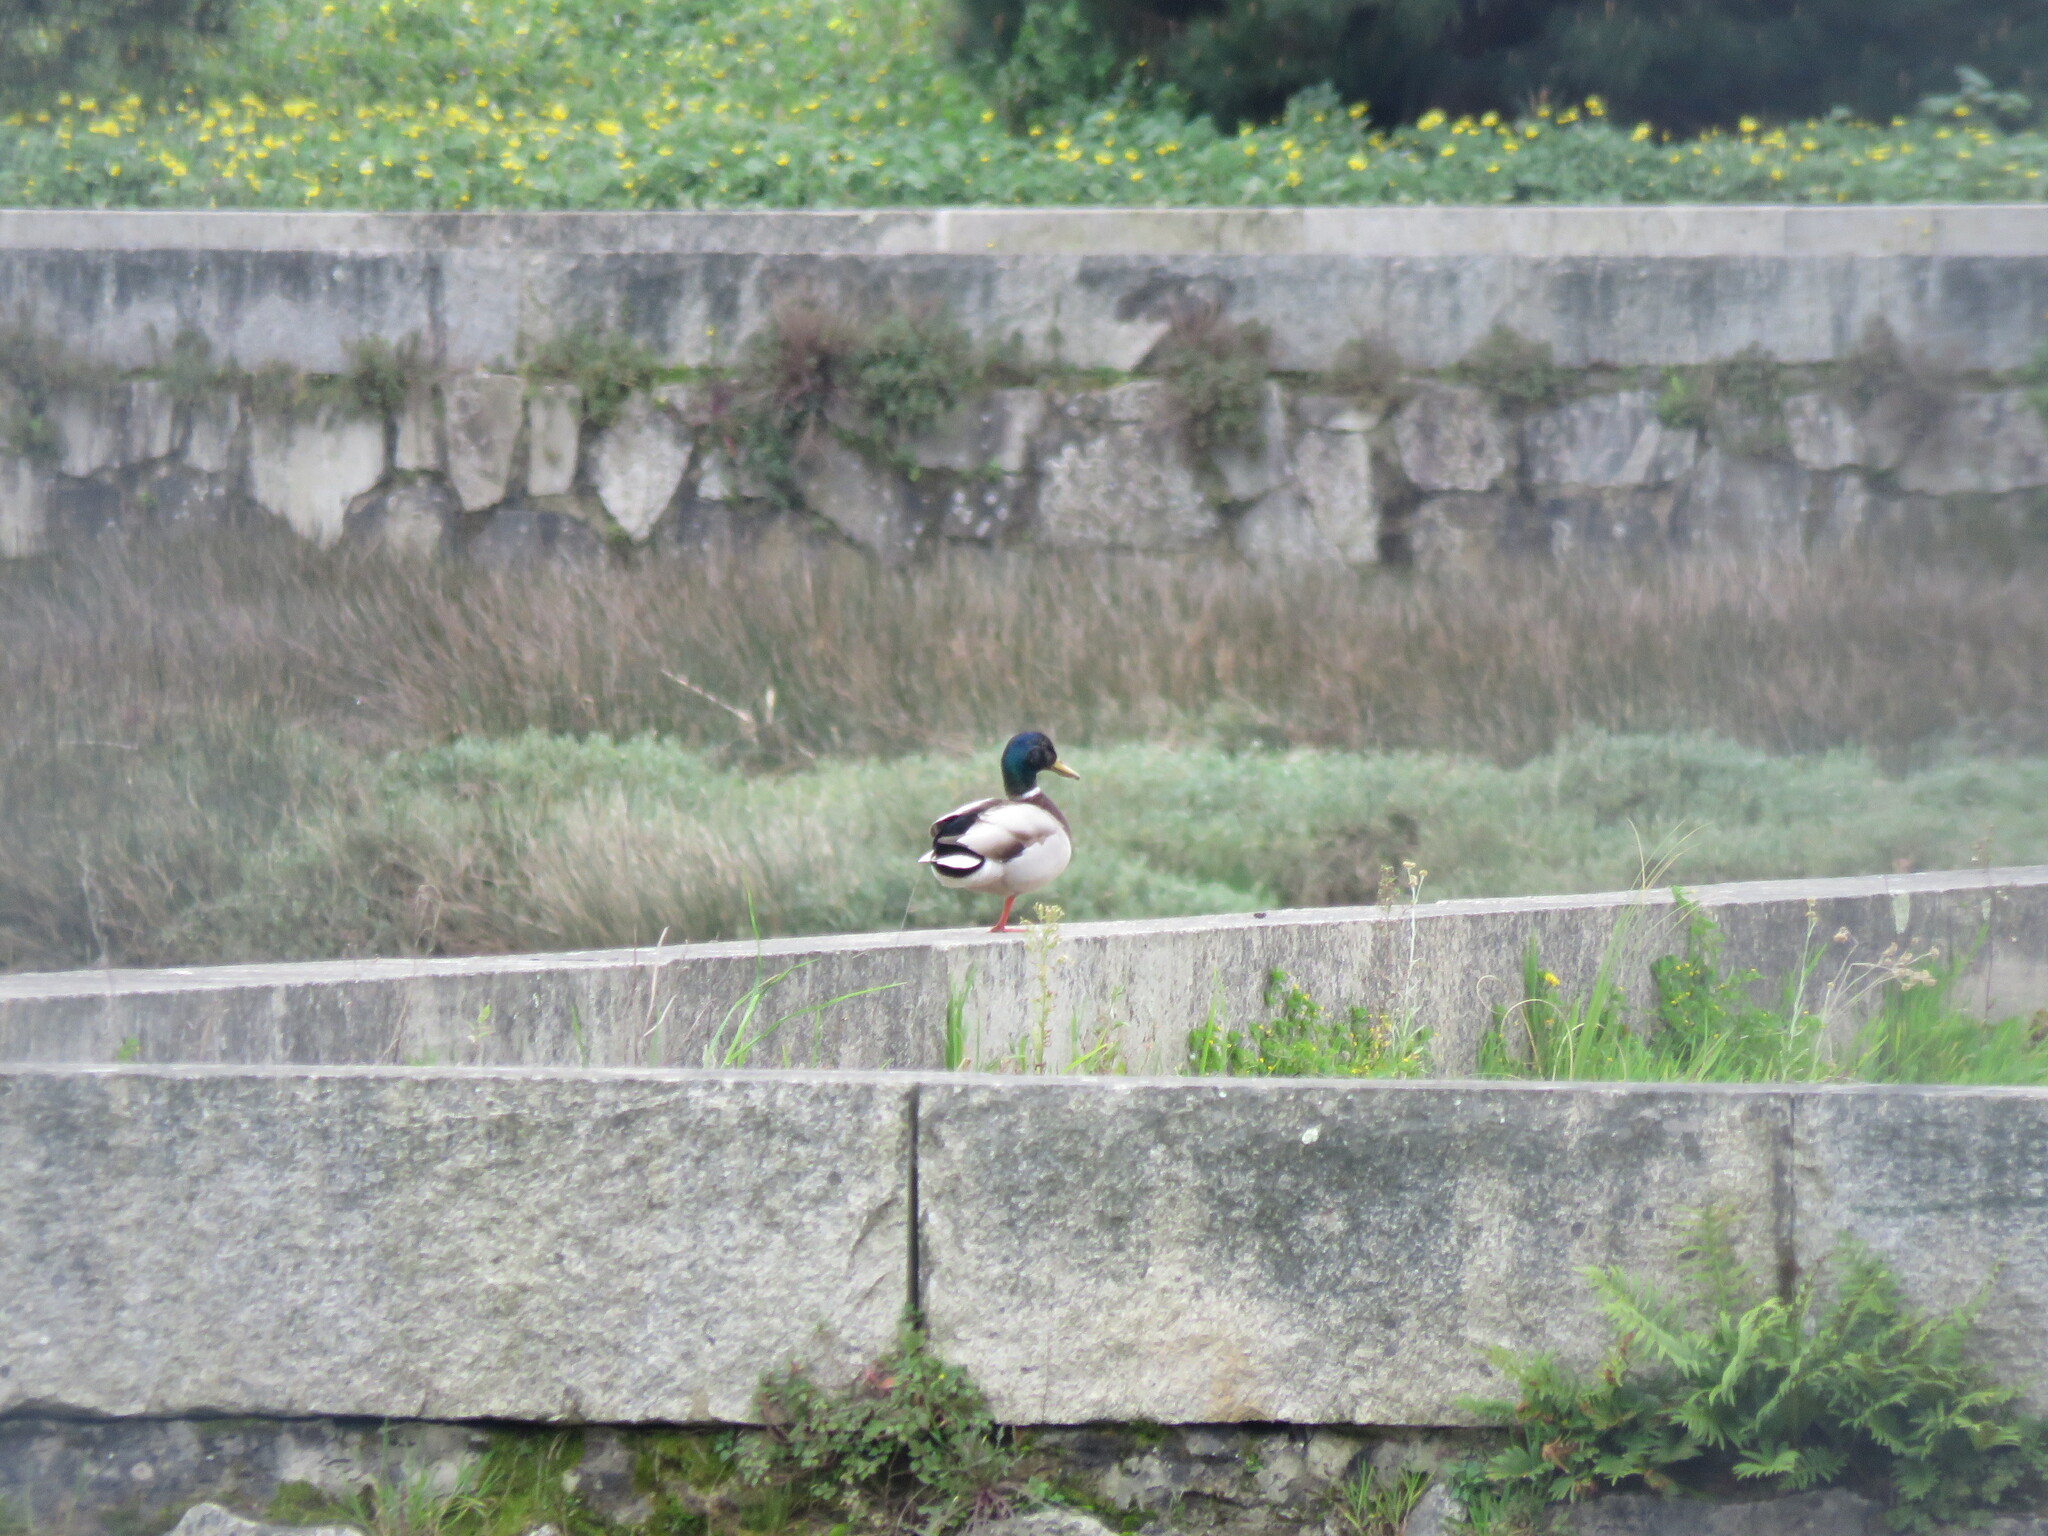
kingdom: Animalia
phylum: Chordata
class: Aves
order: Anseriformes
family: Anatidae
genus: Anas
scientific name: Anas platyrhynchos
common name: Mallard
